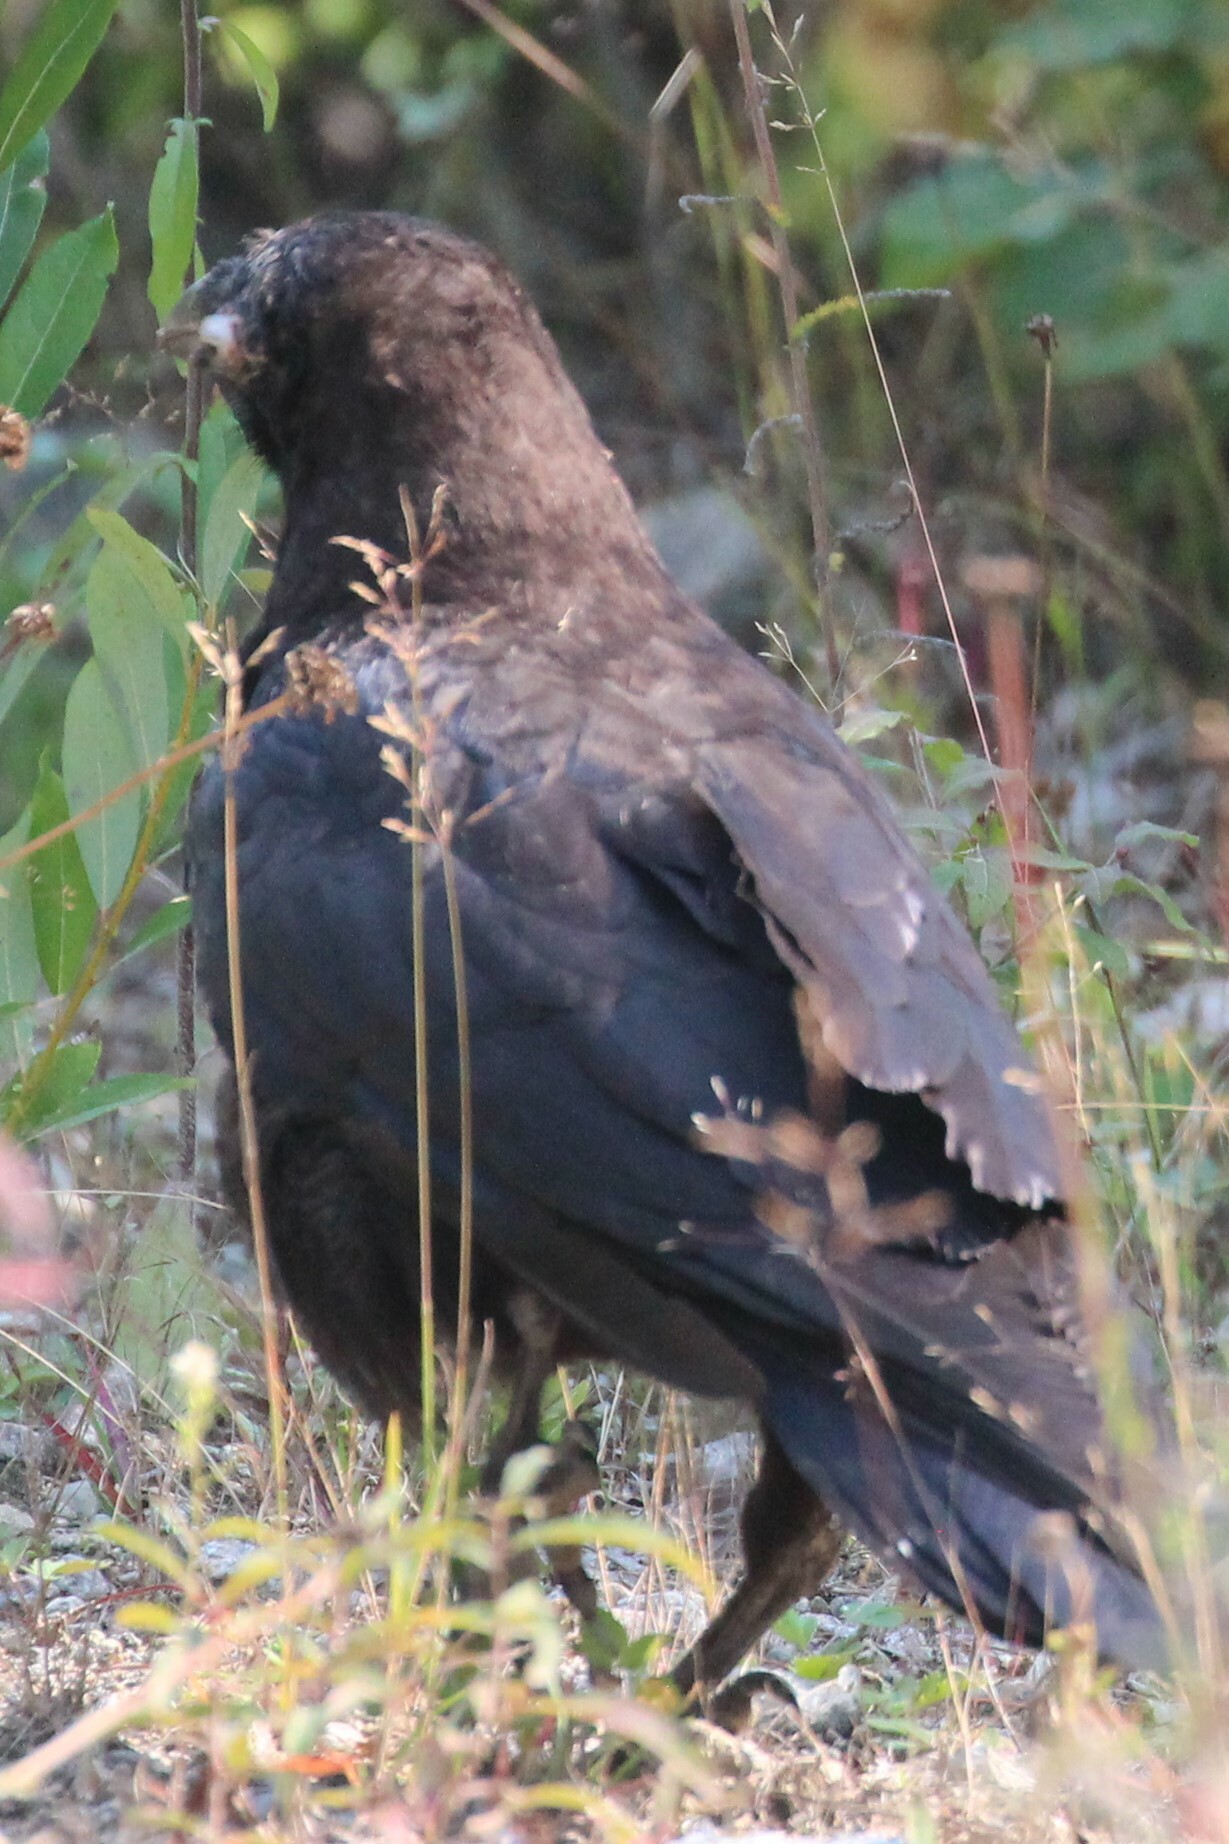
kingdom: Animalia
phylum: Chordata
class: Aves
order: Passeriformes
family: Corvidae
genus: Corvus
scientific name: Corvus corax
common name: Common raven
